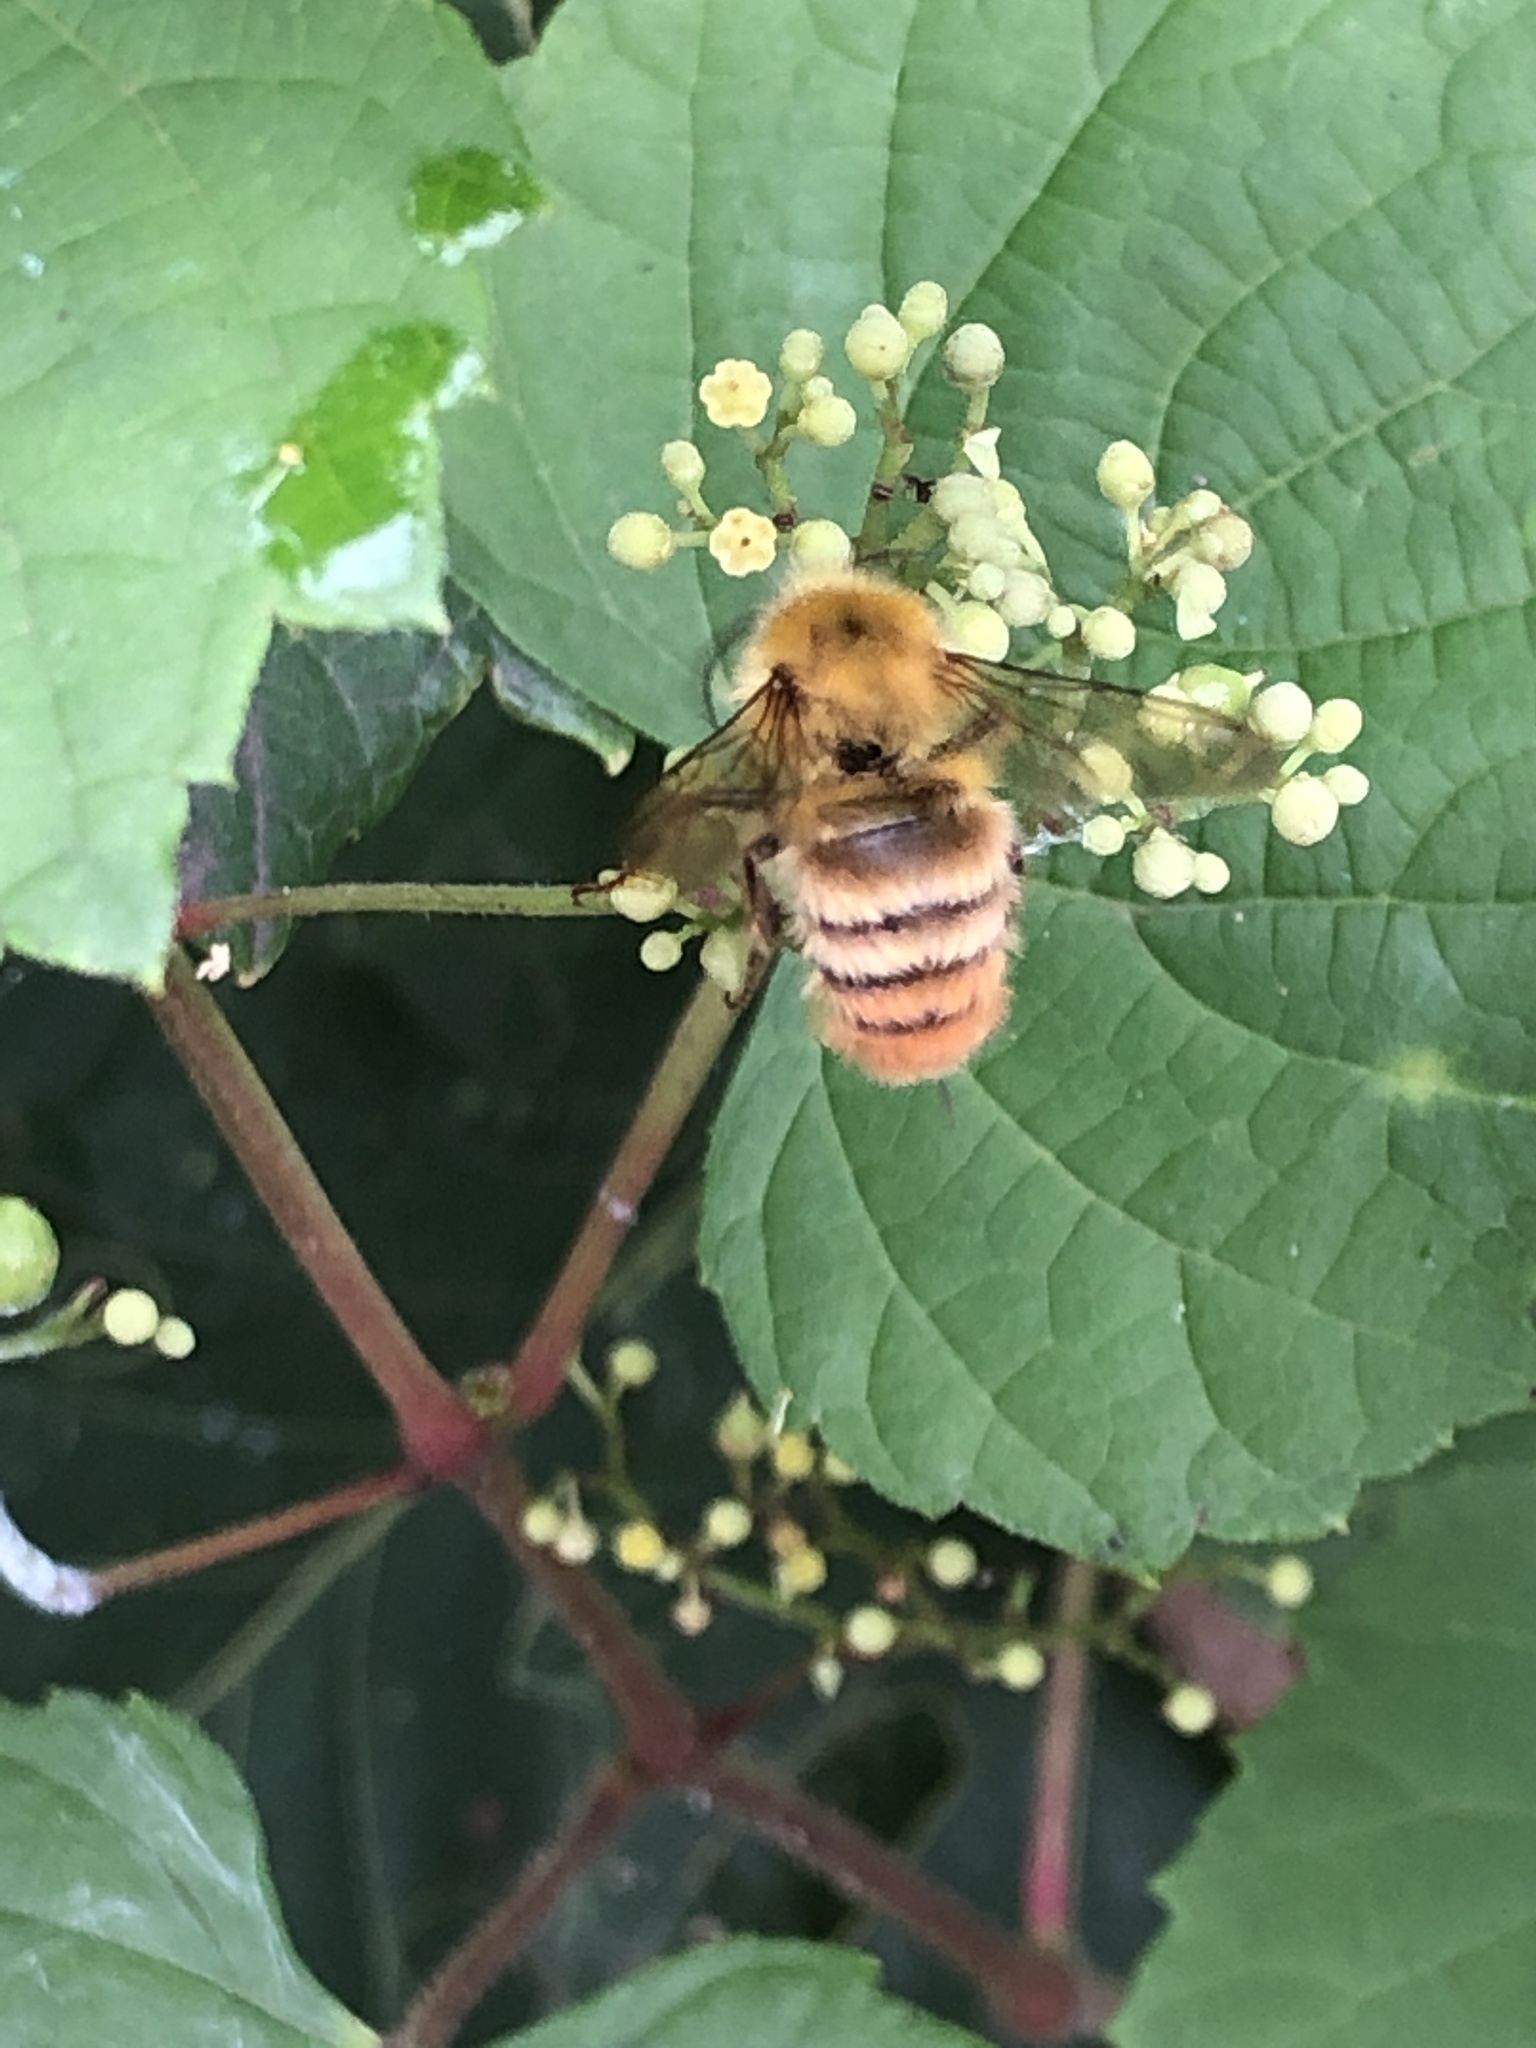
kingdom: Animalia
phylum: Arthropoda
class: Insecta
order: Hymenoptera
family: Apidae
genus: Bombus
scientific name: Bombus ardens
